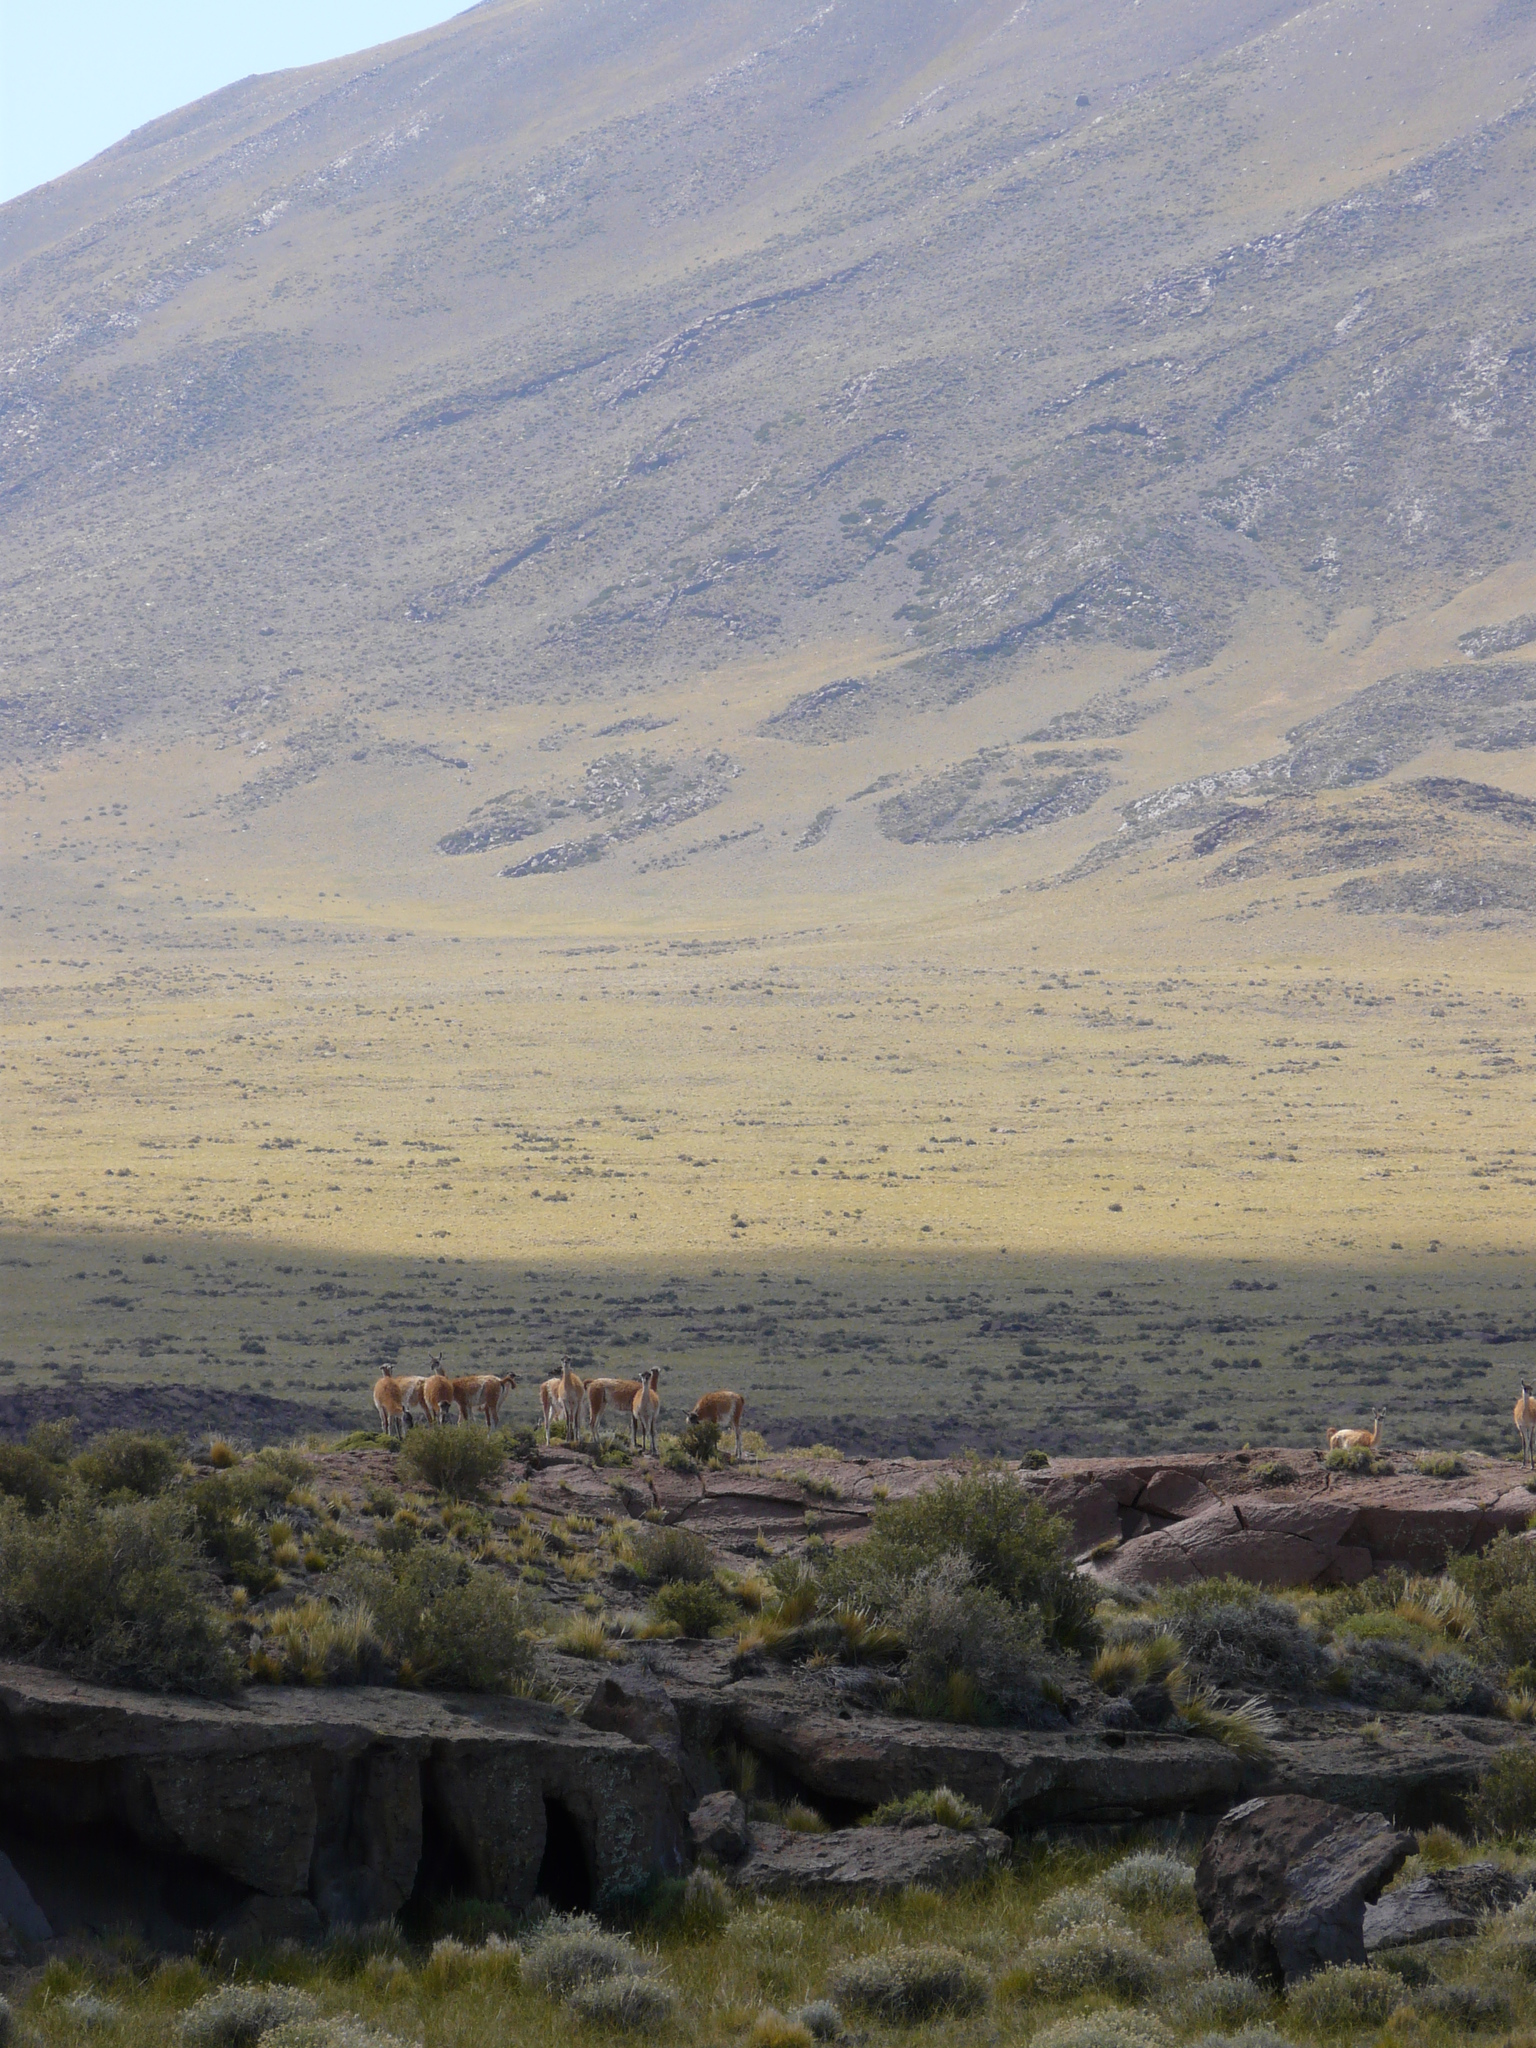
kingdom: Animalia
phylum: Chordata
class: Mammalia
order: Artiodactyla
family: Camelidae
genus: Lama
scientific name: Lama glama
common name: Llama
